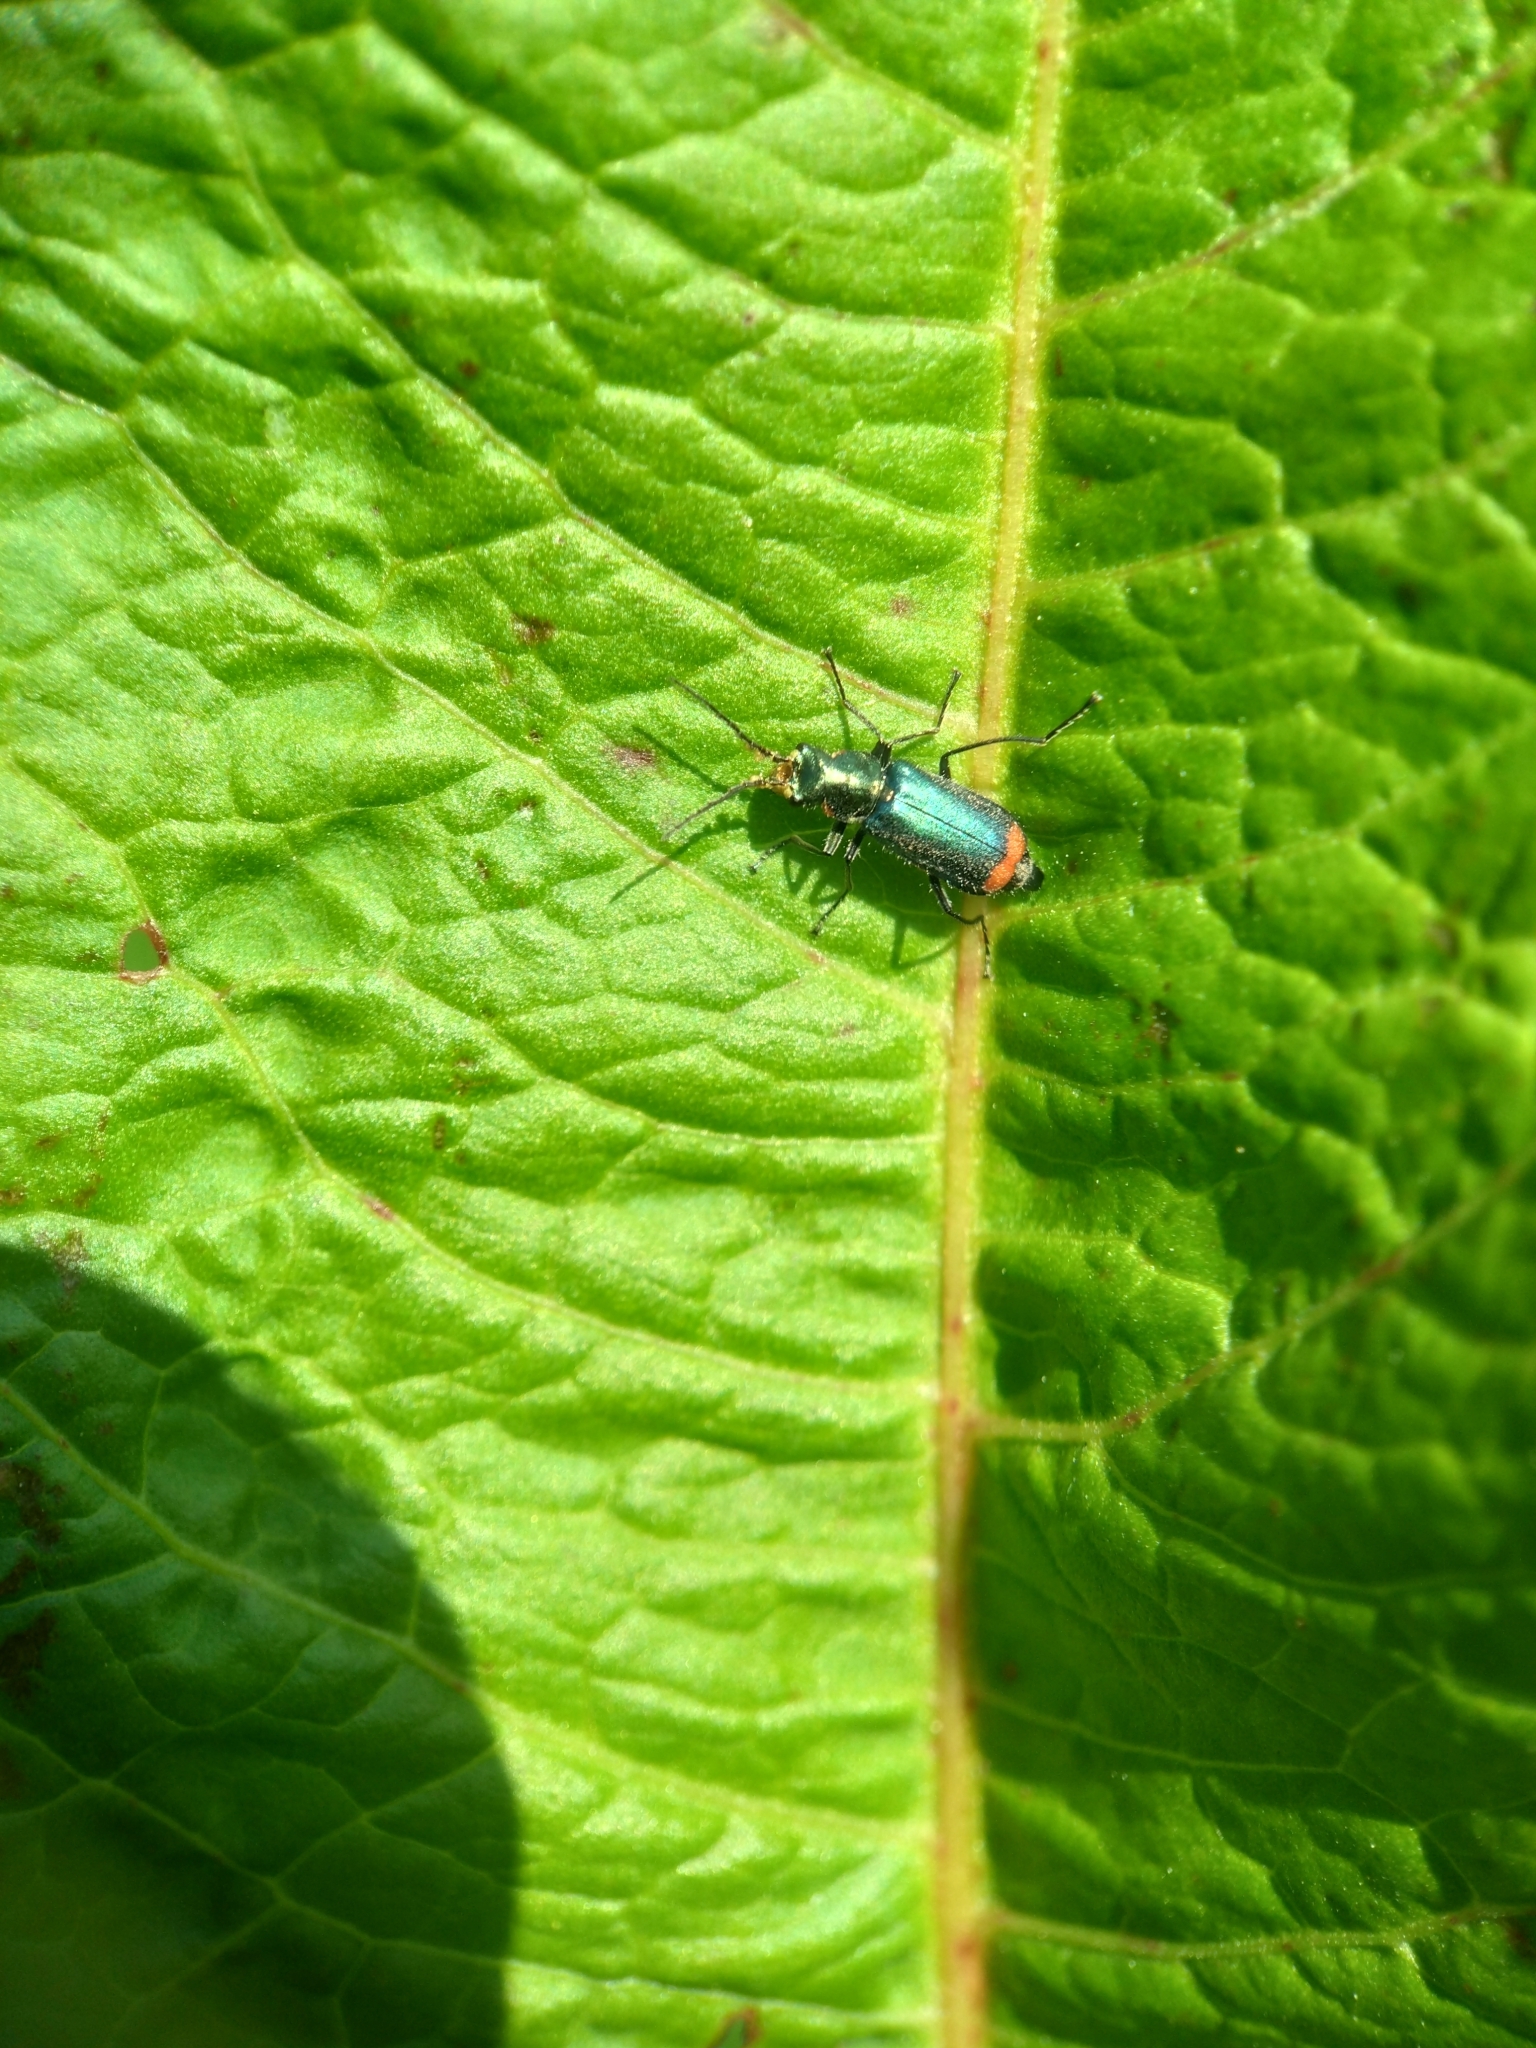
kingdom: Animalia
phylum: Arthropoda
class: Insecta
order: Coleoptera
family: Melyridae
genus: Malachius
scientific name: Malachius bipustulatus
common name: Malachite beetle
